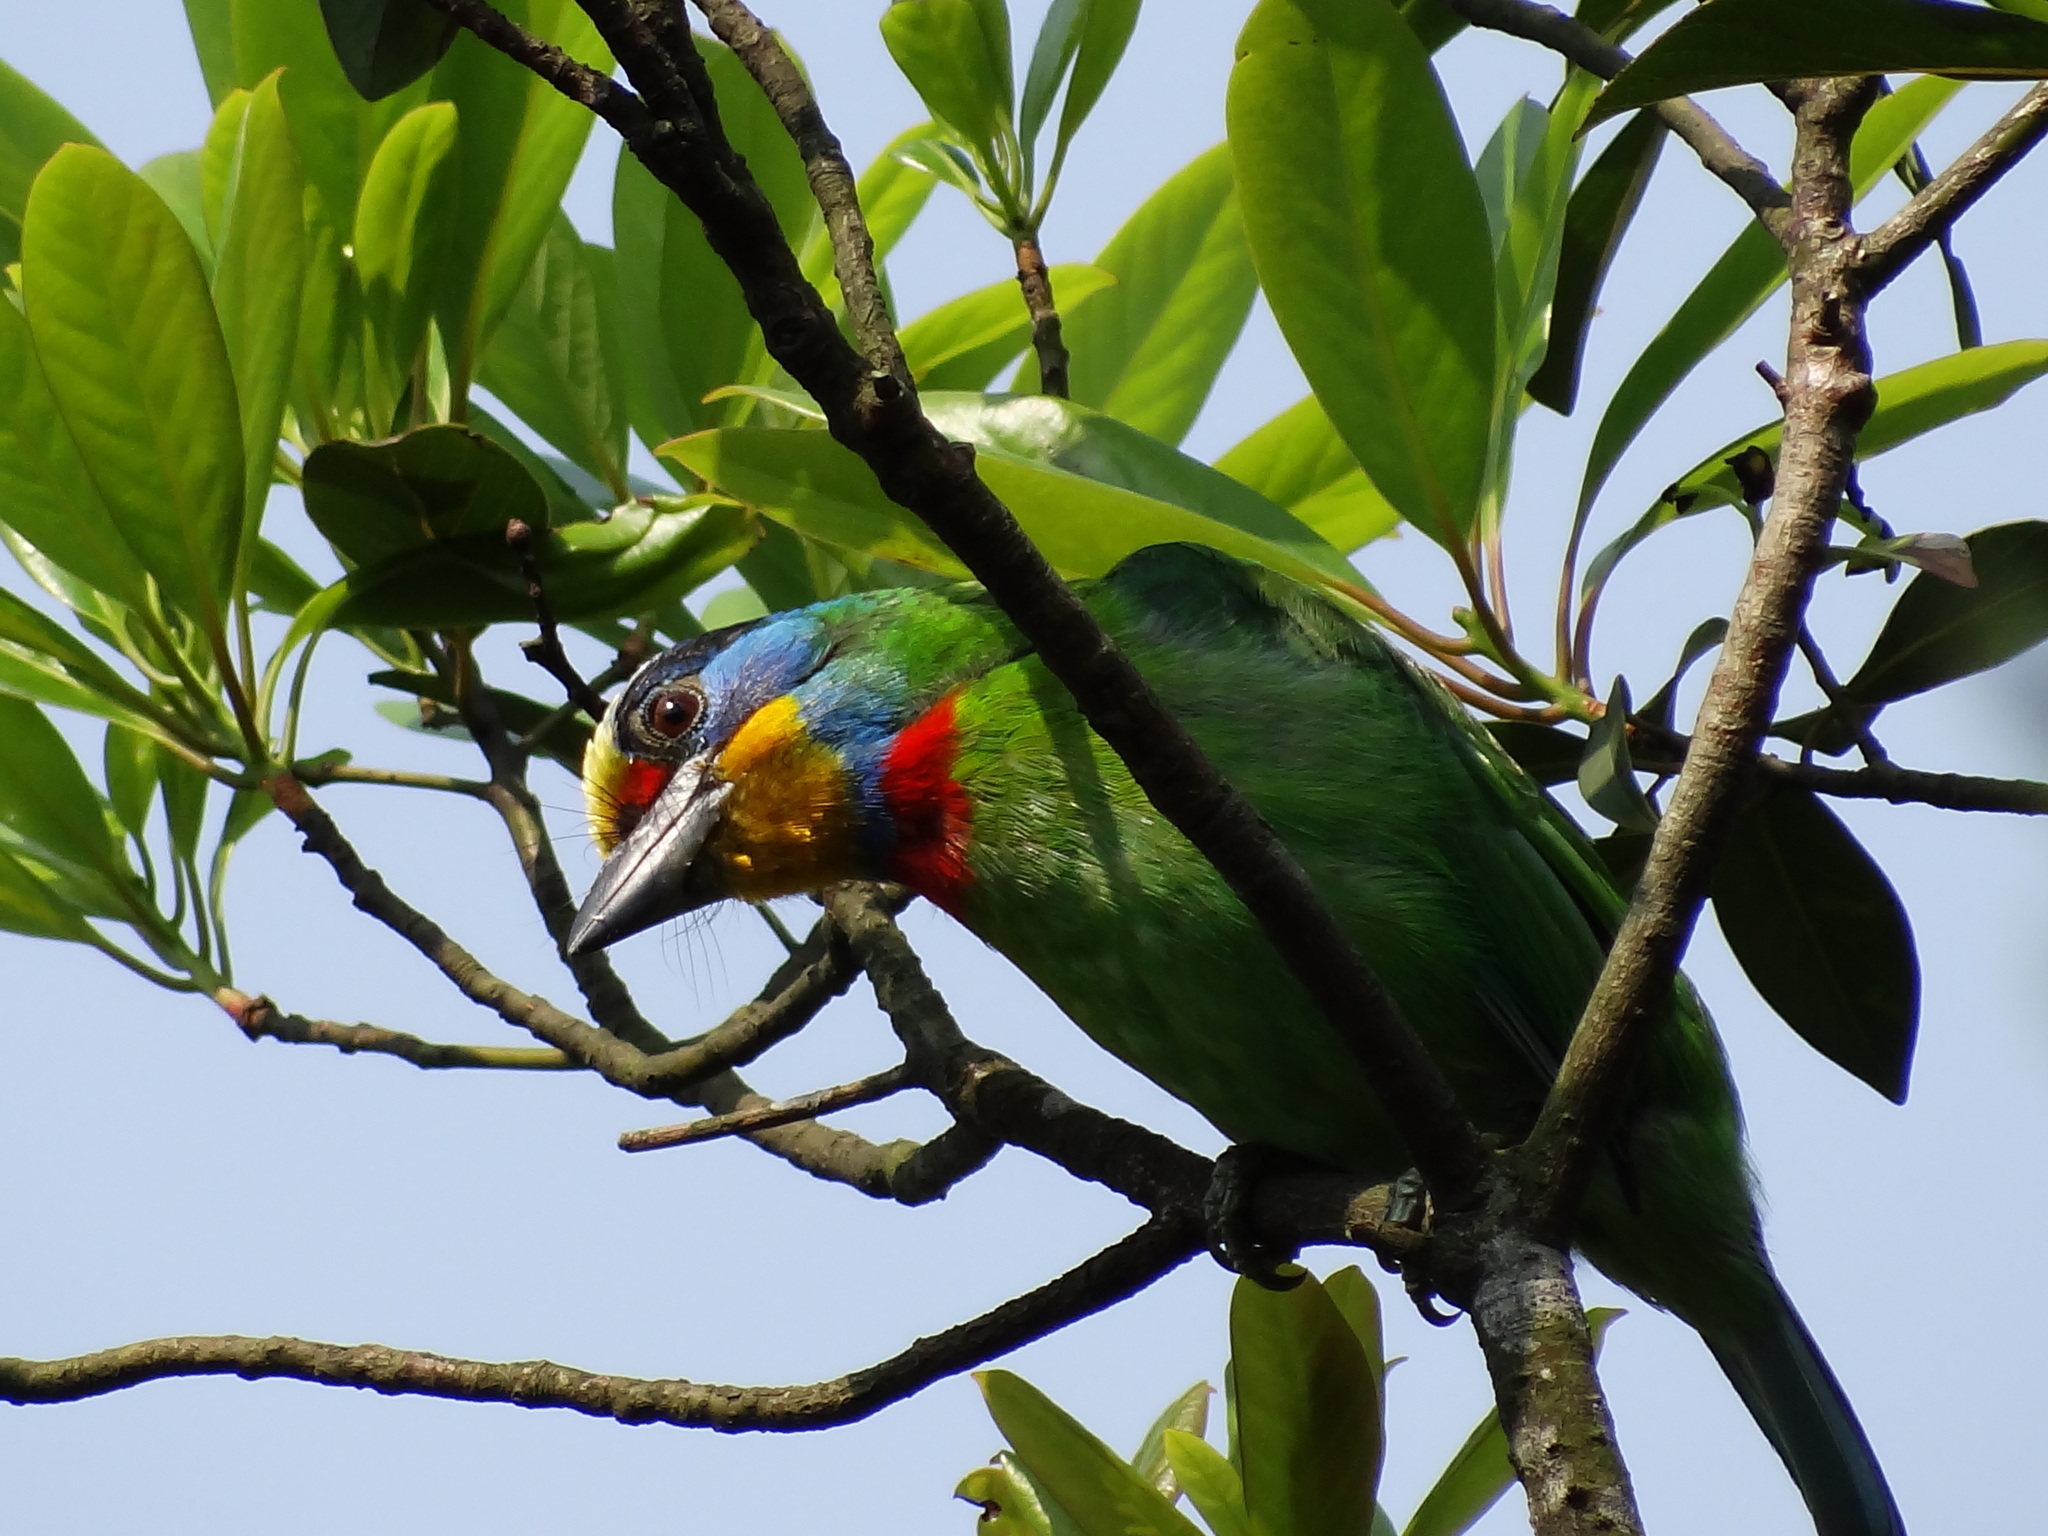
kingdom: Animalia
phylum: Chordata
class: Aves
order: Piciformes
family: Megalaimidae
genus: Psilopogon
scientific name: Psilopogon nuchalis
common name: Taiwan barbet
